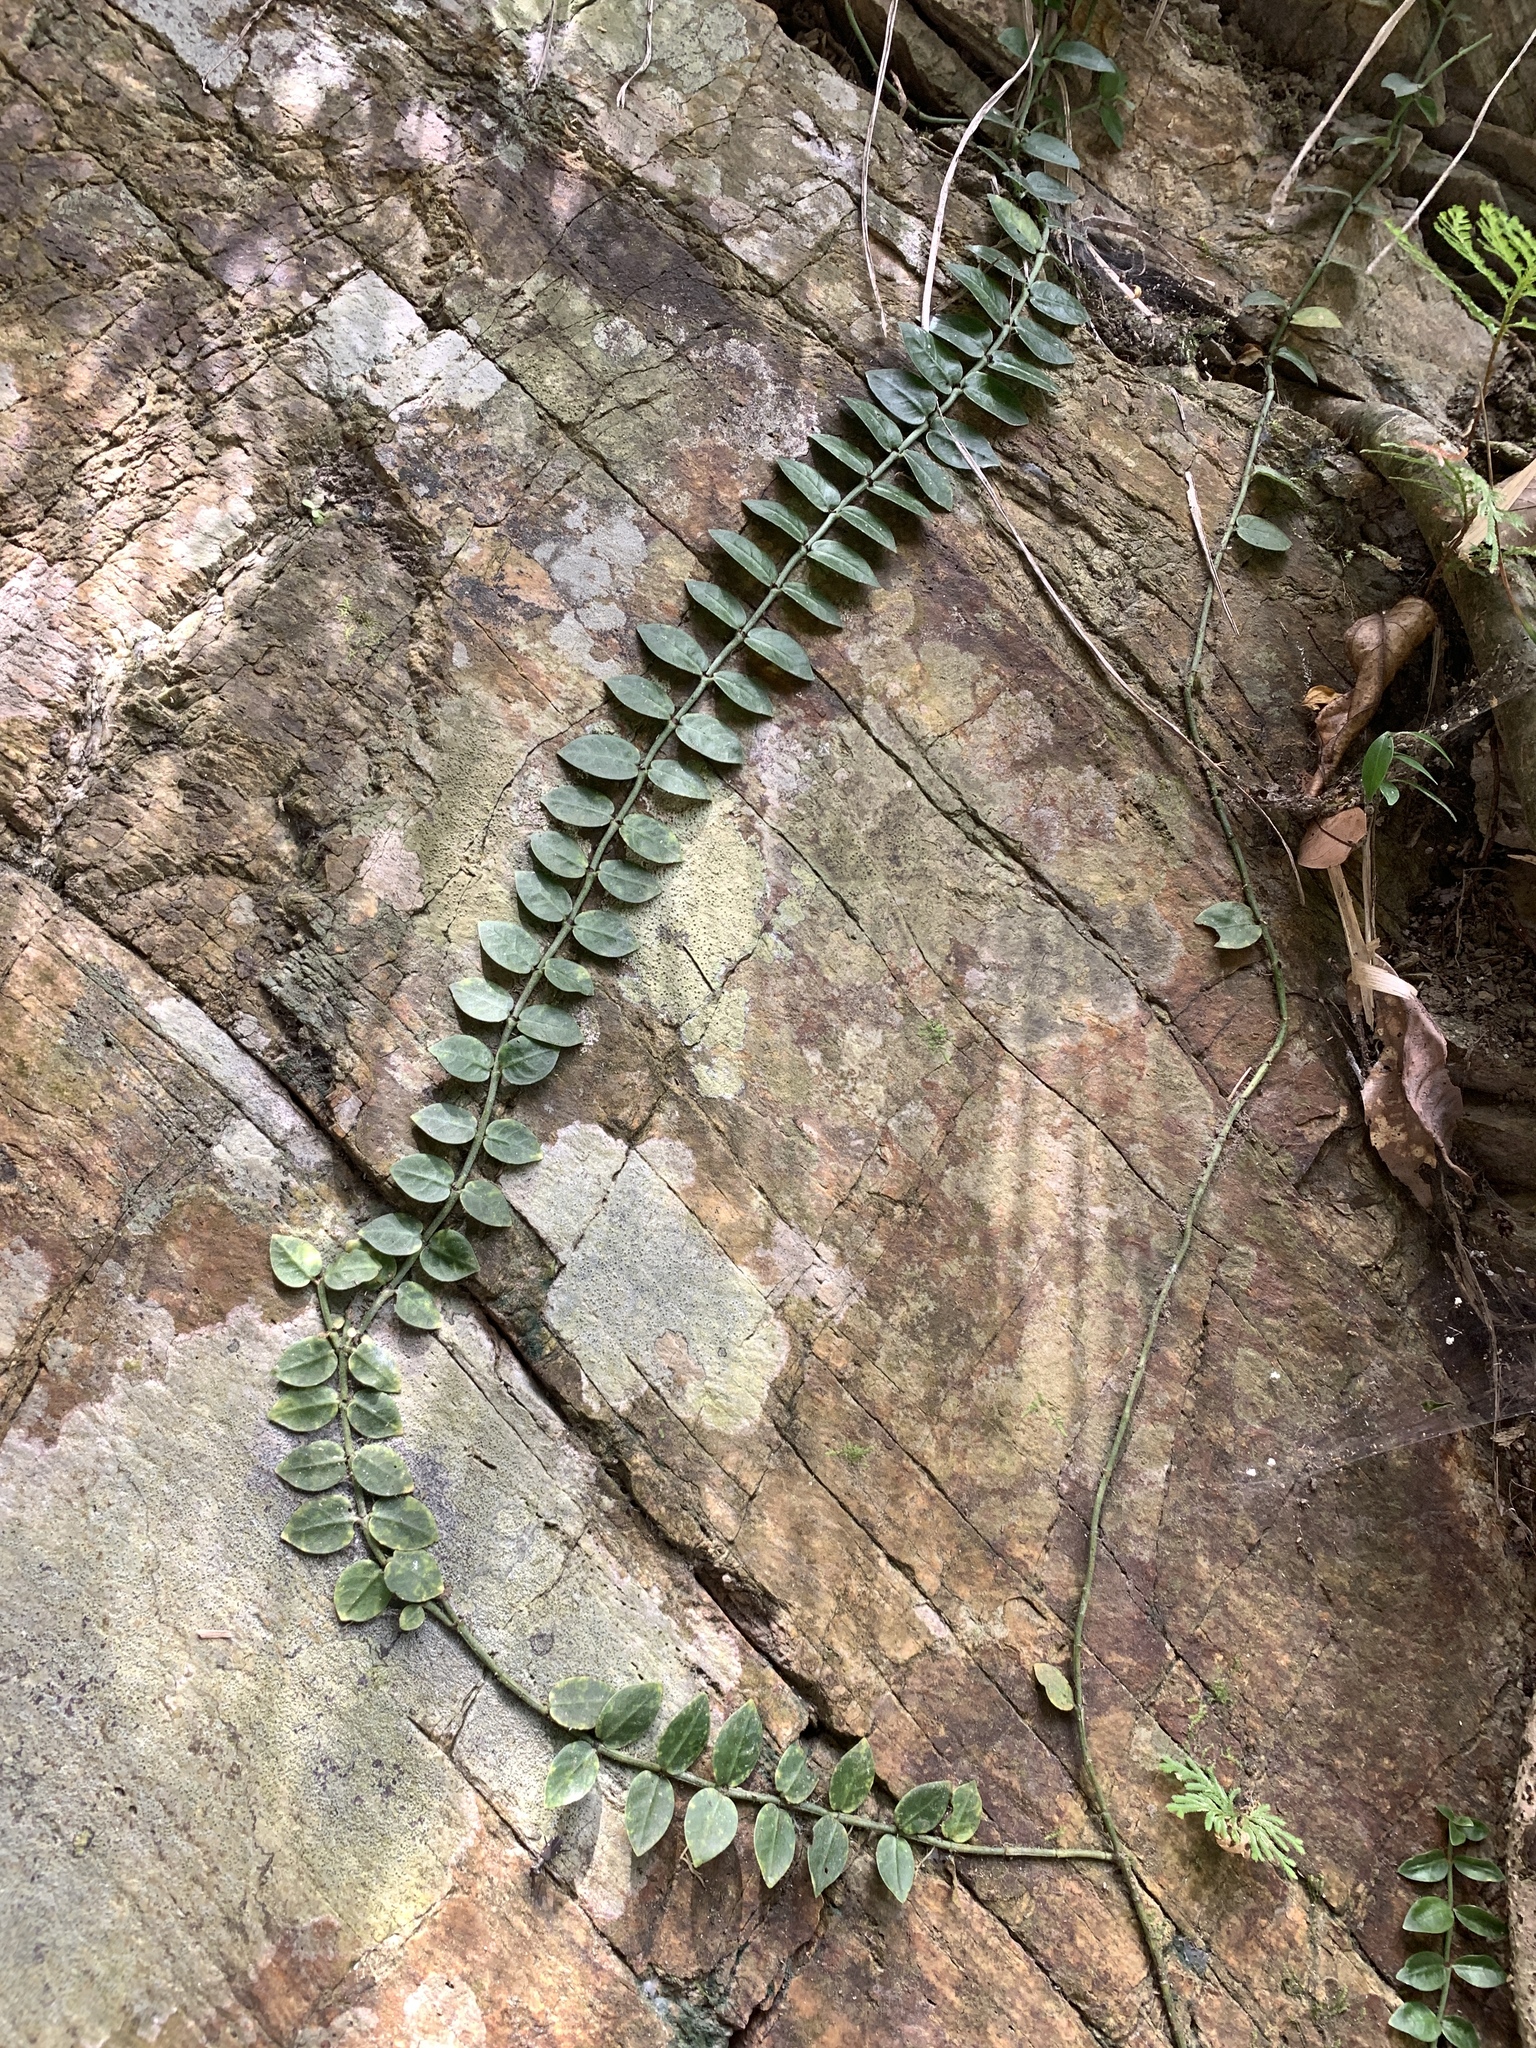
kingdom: Plantae
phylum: Tracheophyta
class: Magnoliopsida
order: Gentianales
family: Rubiaceae
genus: Psychotria
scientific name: Psychotria serpens
